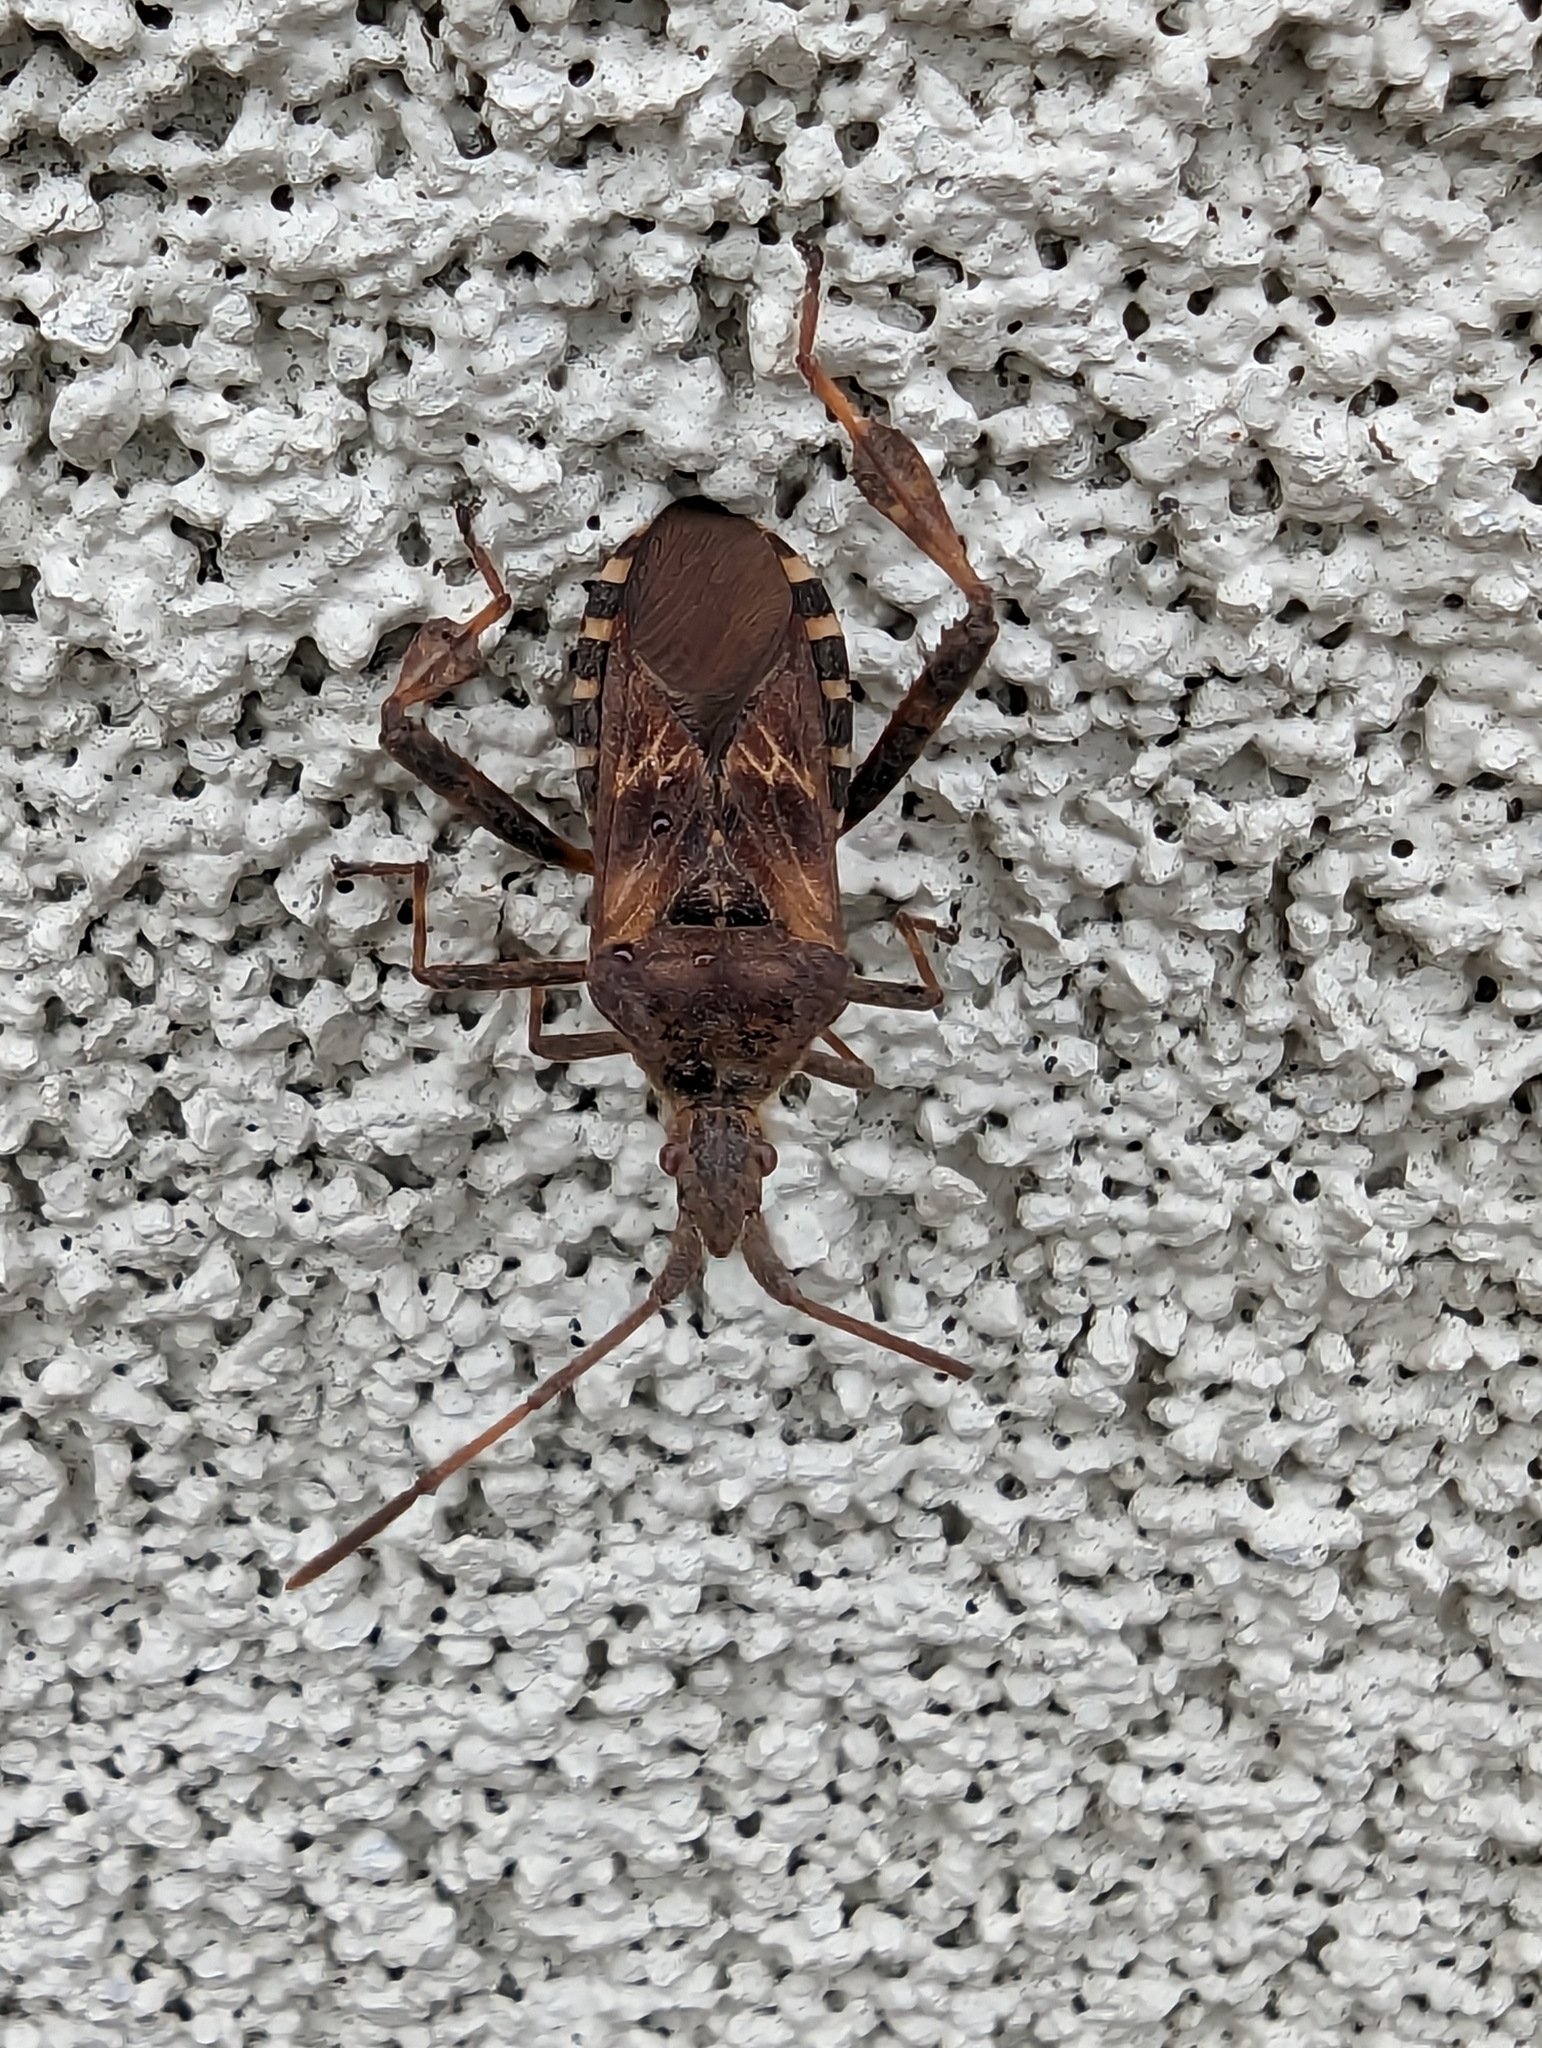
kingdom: Animalia
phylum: Arthropoda
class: Insecta
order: Hemiptera
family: Coreidae
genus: Leptoglossus
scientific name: Leptoglossus occidentalis
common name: Western conifer-seed bug
